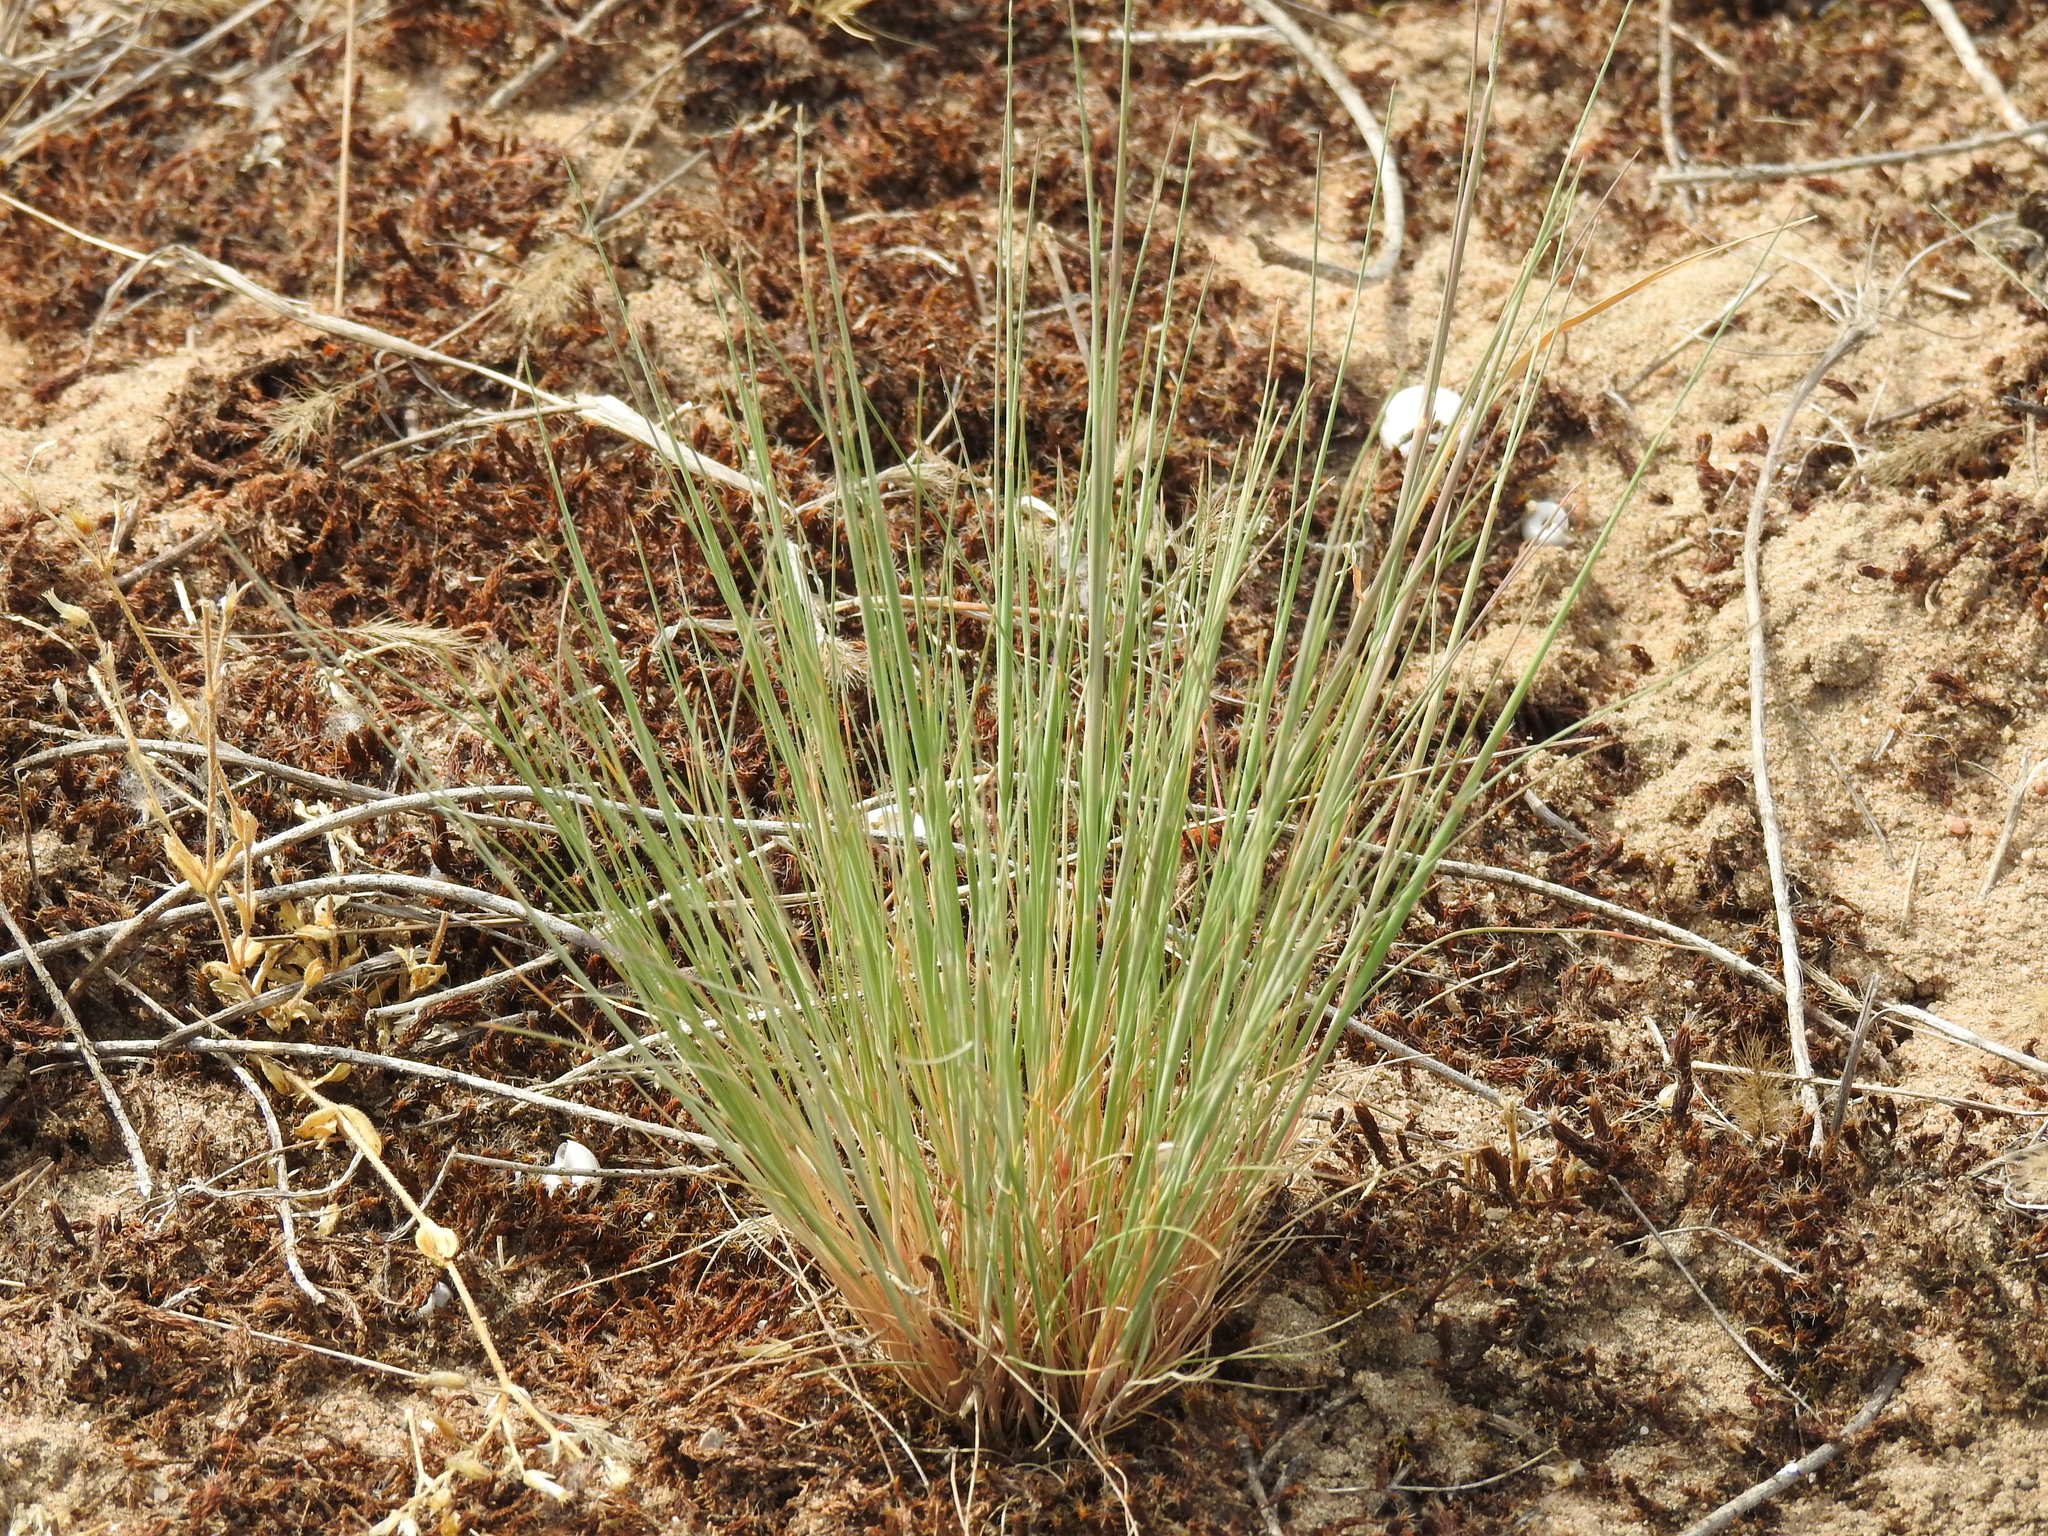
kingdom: Plantae
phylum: Tracheophyta
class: Liliopsida
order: Poales
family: Poaceae
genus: Corynephorus
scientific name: Corynephorus canescens
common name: Grey hair-grass
